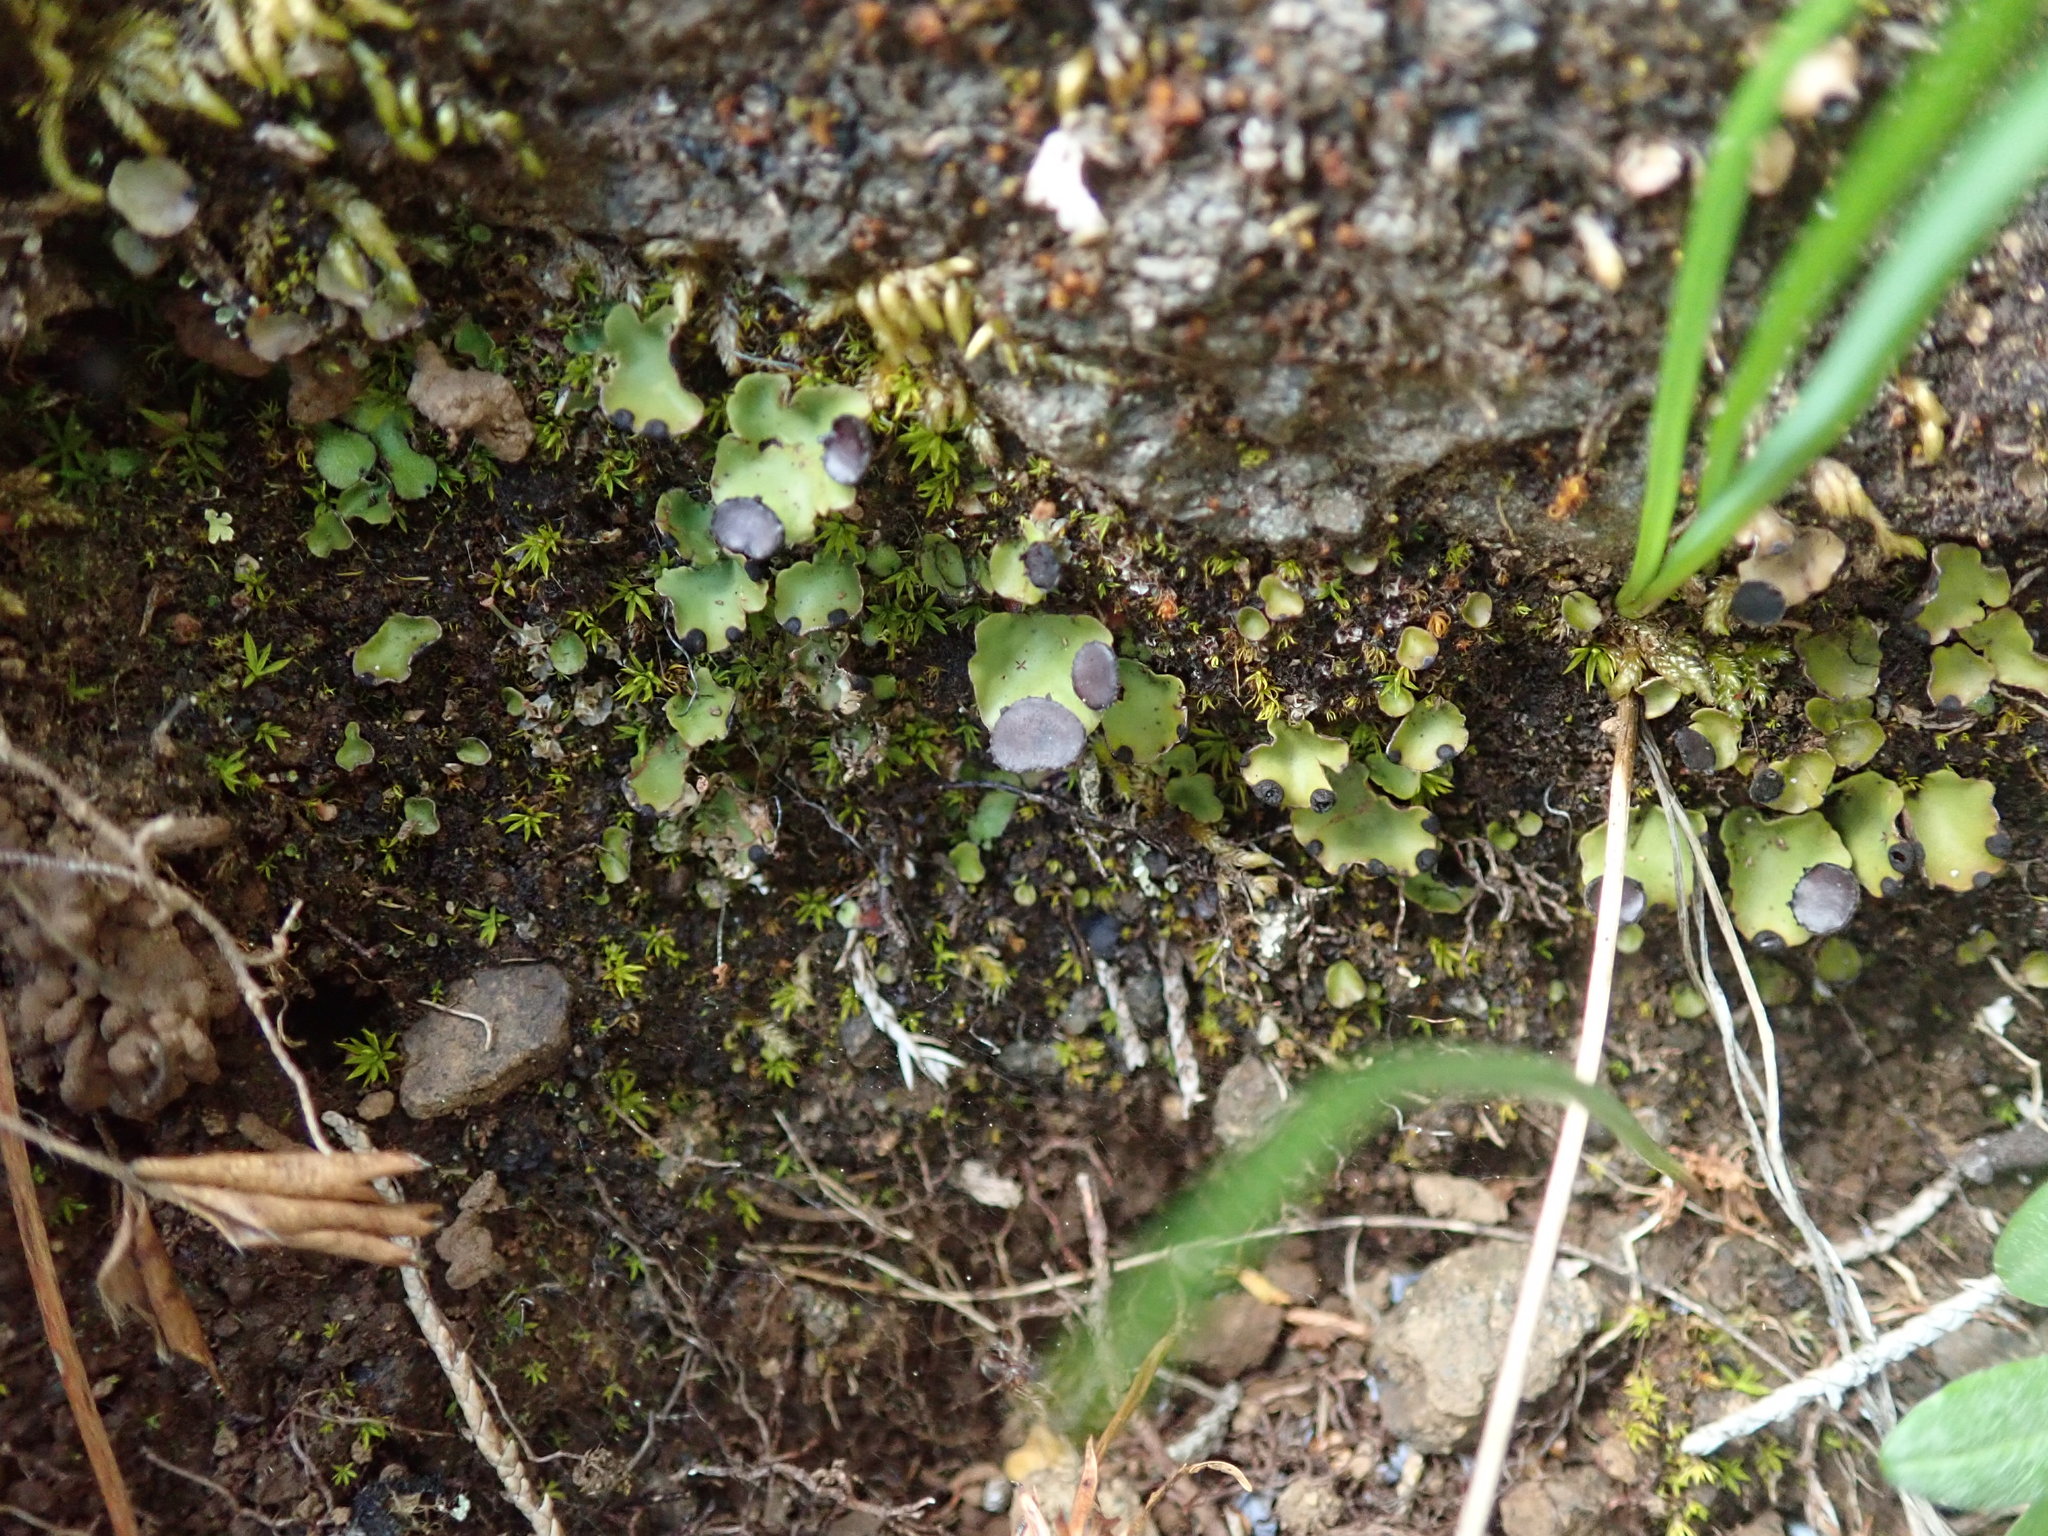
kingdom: Fungi
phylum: Ascomycota
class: Lecanoromycetes
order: Peltigerales
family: Peltigeraceae
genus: Peltigera
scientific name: Peltigera venosa
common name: Pixie gowns lichen
